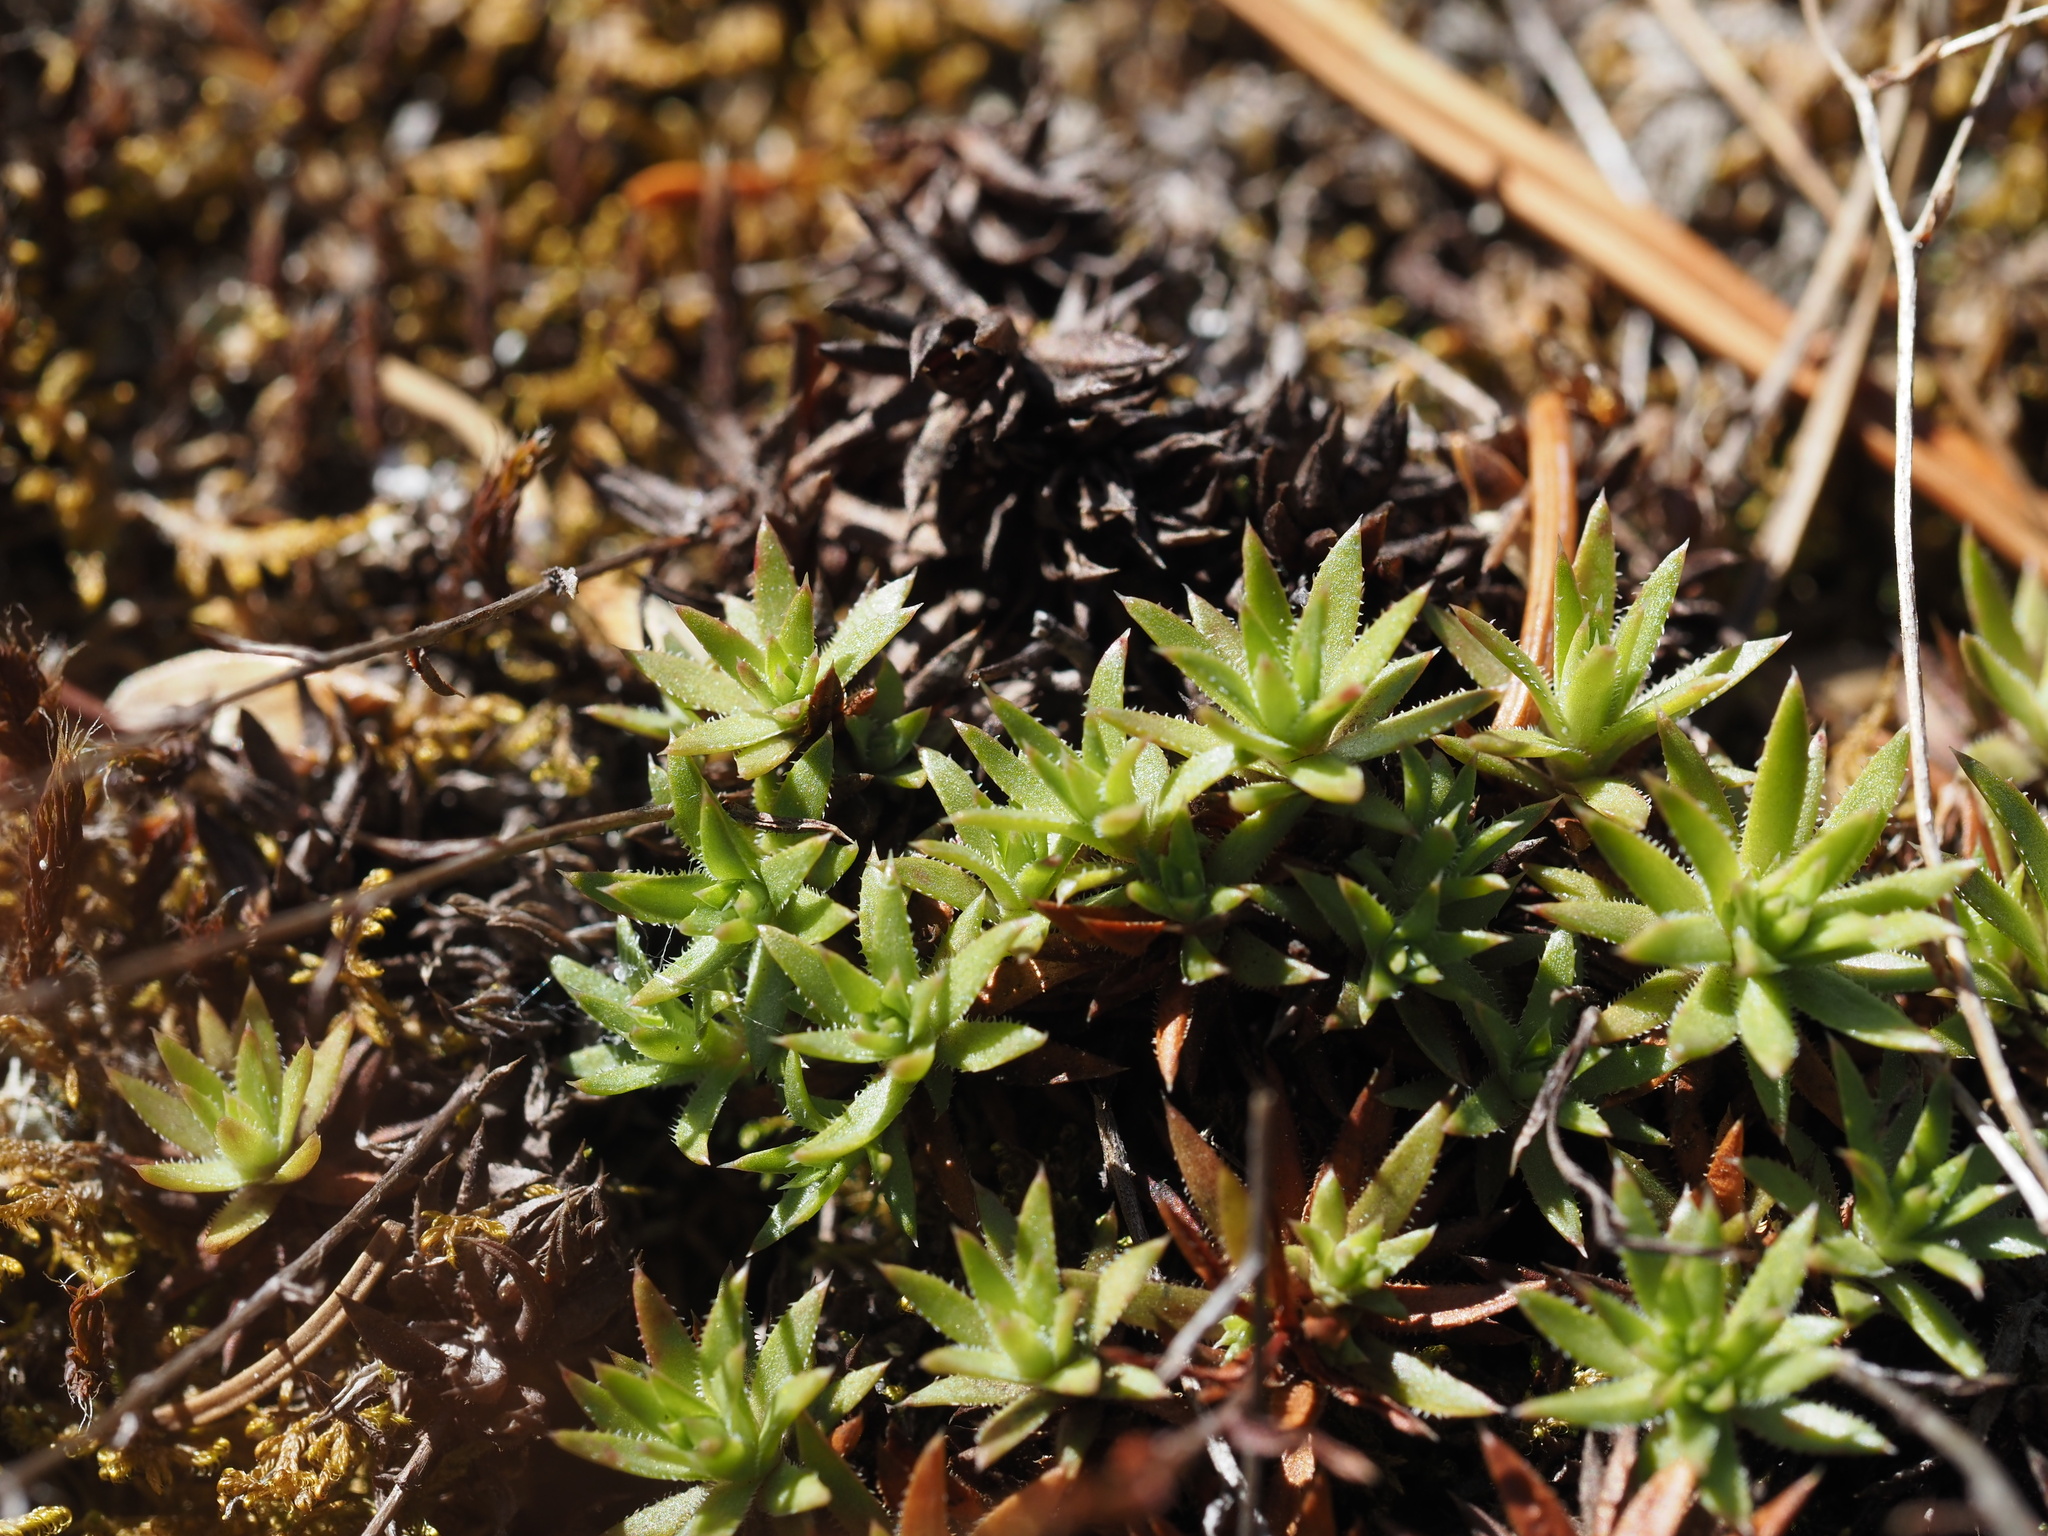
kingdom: Plantae
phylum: Tracheophyta
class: Magnoliopsida
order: Saxifragales
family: Saxifragaceae
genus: Saxifraga
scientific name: Saxifraga bronchialis
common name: Matted saxifrage
